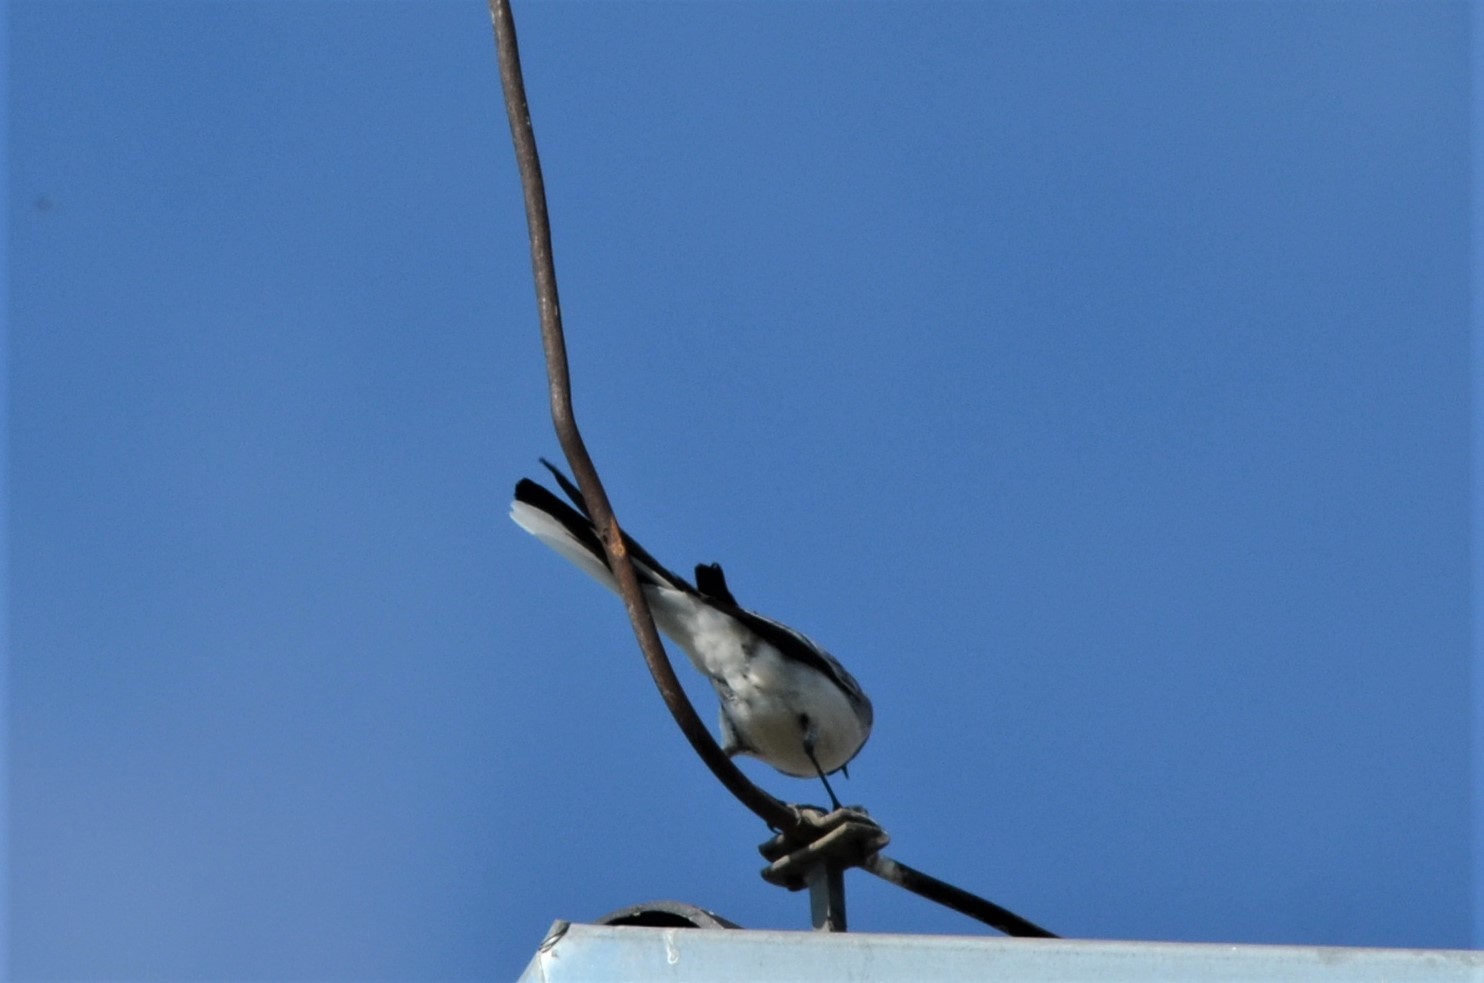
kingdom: Animalia
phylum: Chordata
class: Aves
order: Passeriformes
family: Motacillidae
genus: Motacilla
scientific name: Motacilla alba
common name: White wagtail
